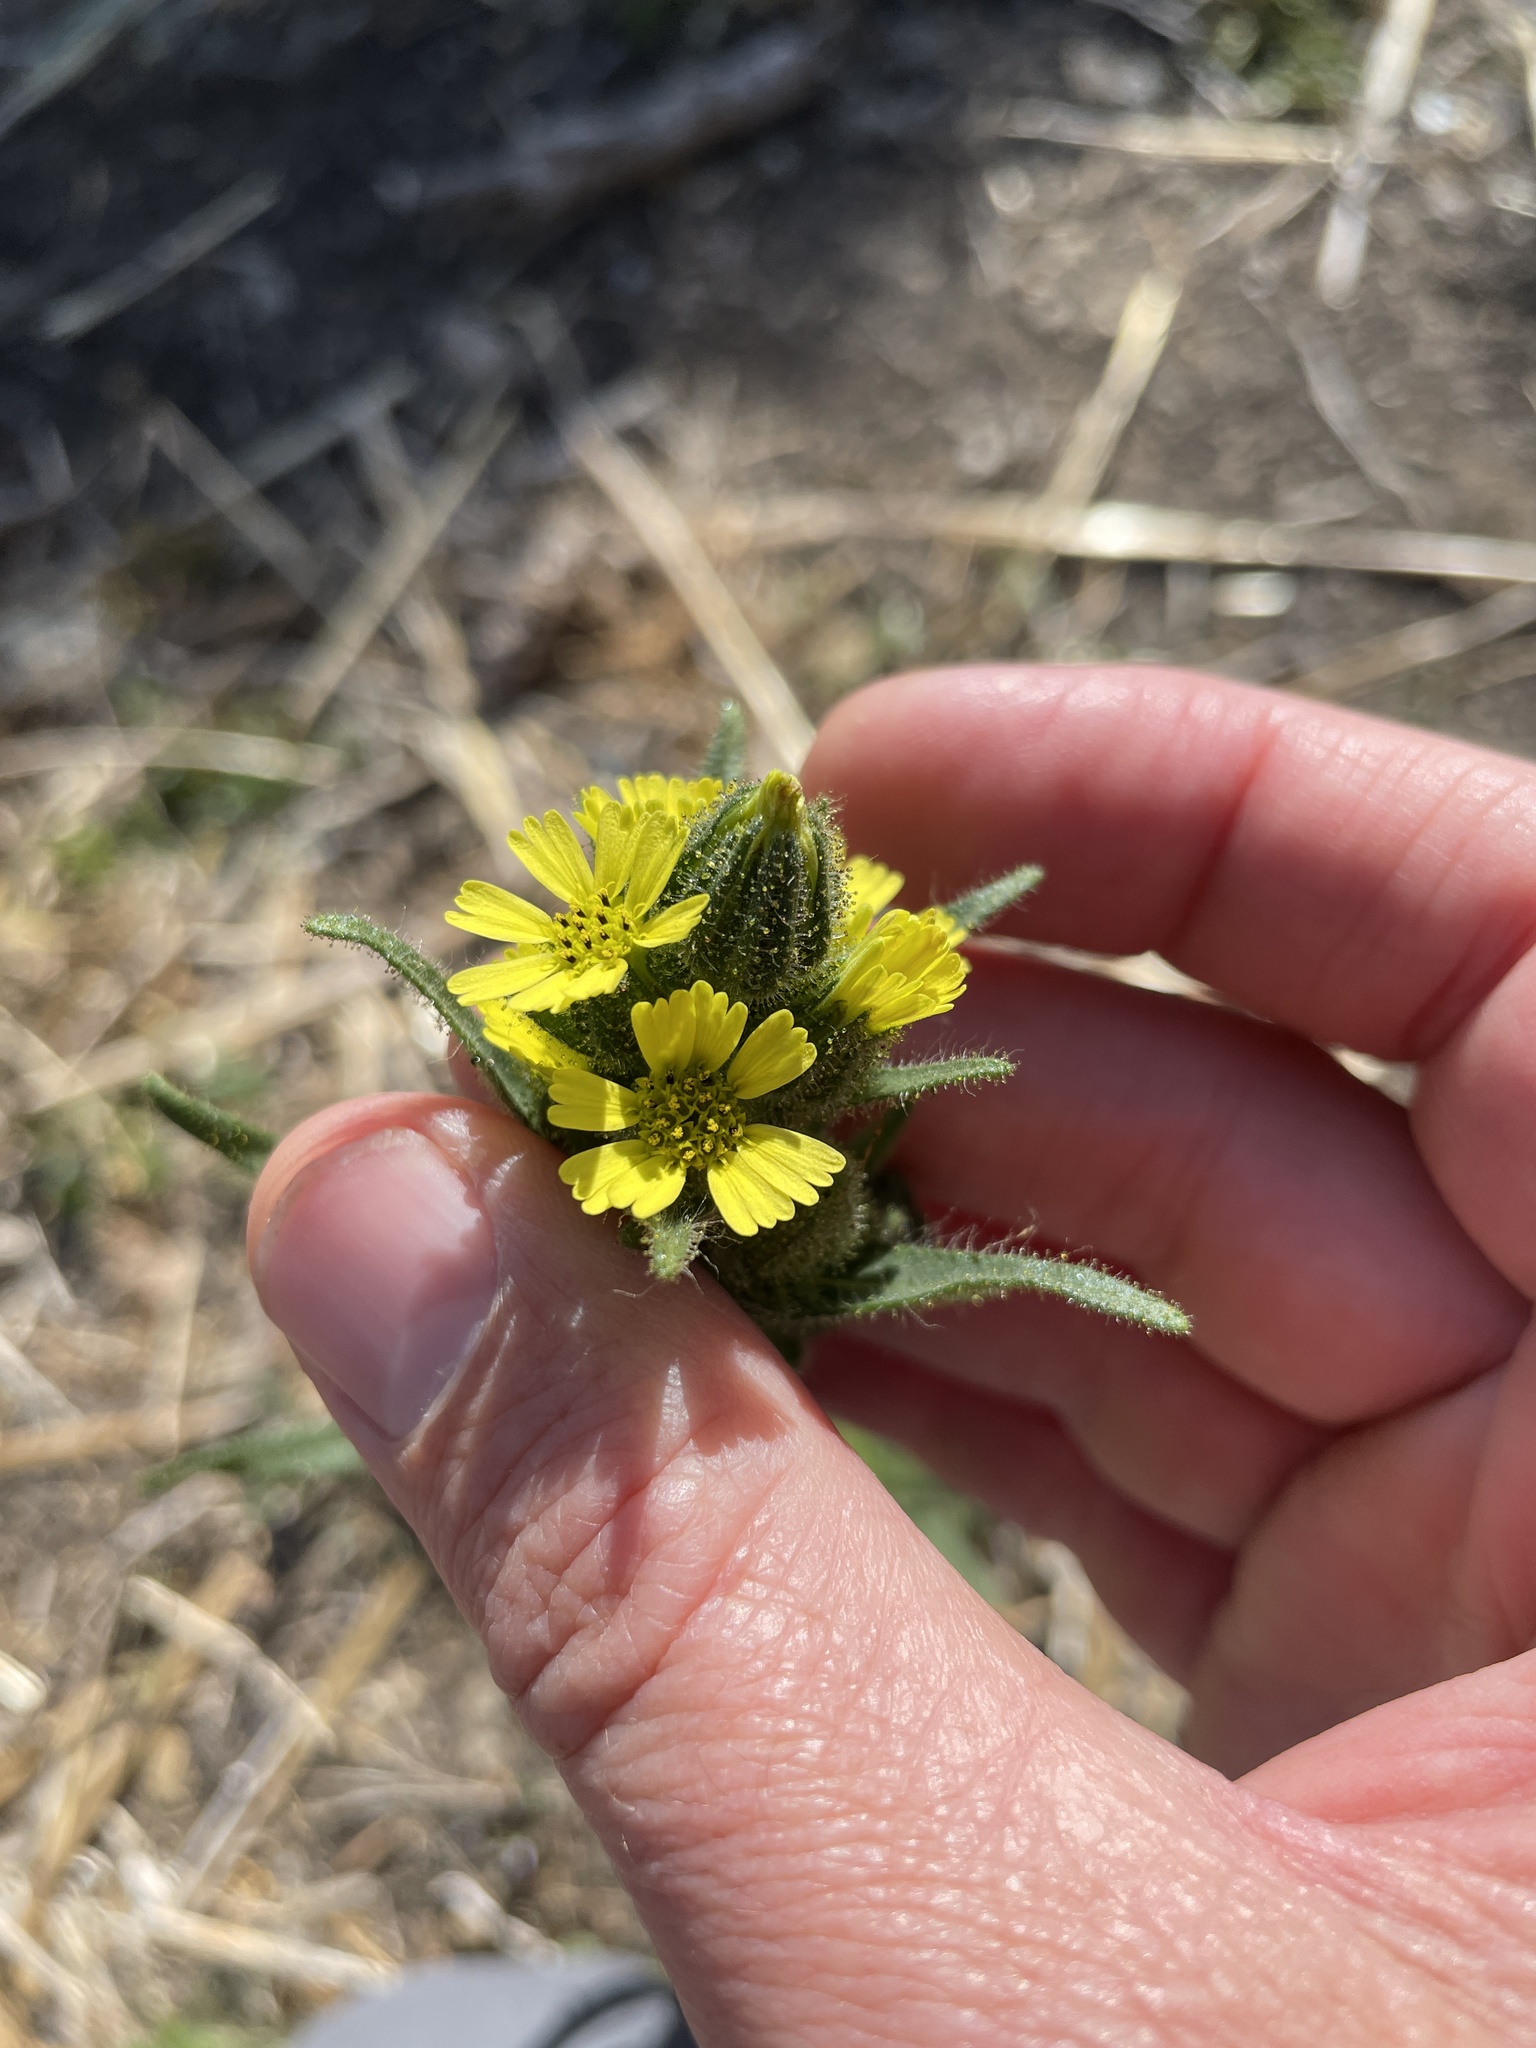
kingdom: Plantae
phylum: Tracheophyta
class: Magnoliopsida
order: Asterales
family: Asteraceae
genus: Madia
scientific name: Madia sativa
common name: Coast tarweed
